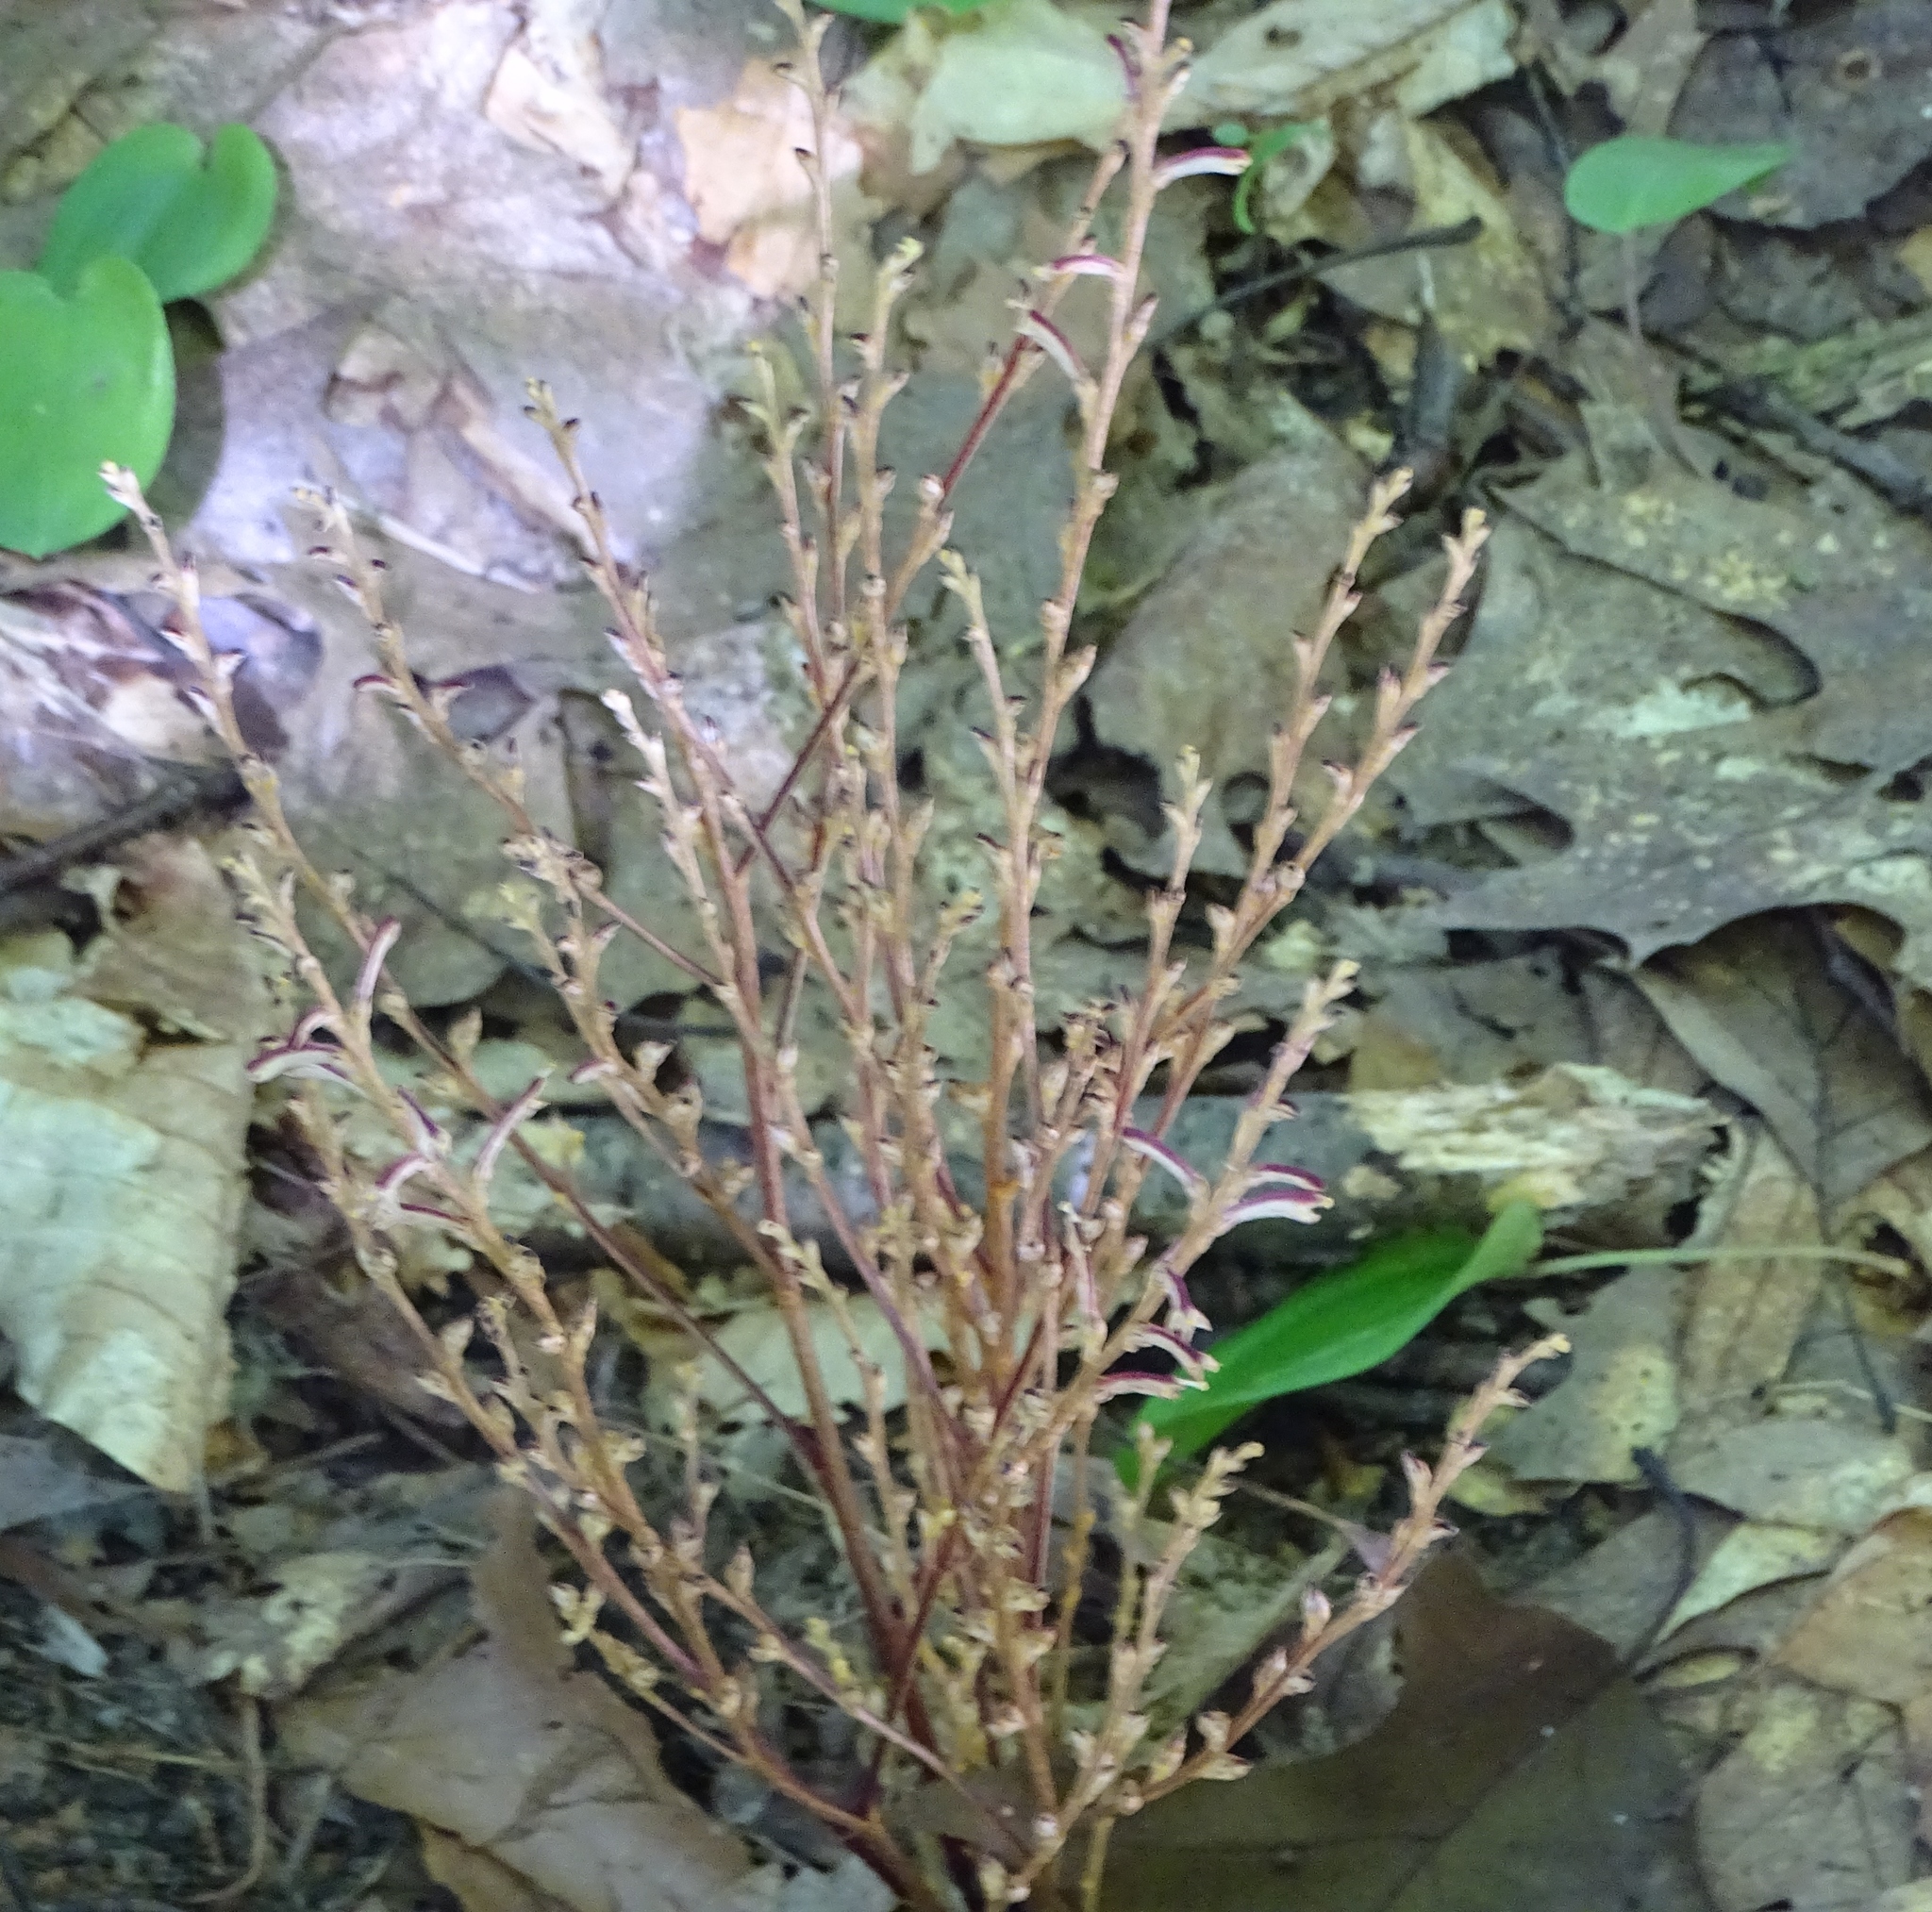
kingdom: Plantae
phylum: Tracheophyta
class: Magnoliopsida
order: Lamiales
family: Orobanchaceae
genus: Epifagus
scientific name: Epifagus virginiana
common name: Beechdrops
